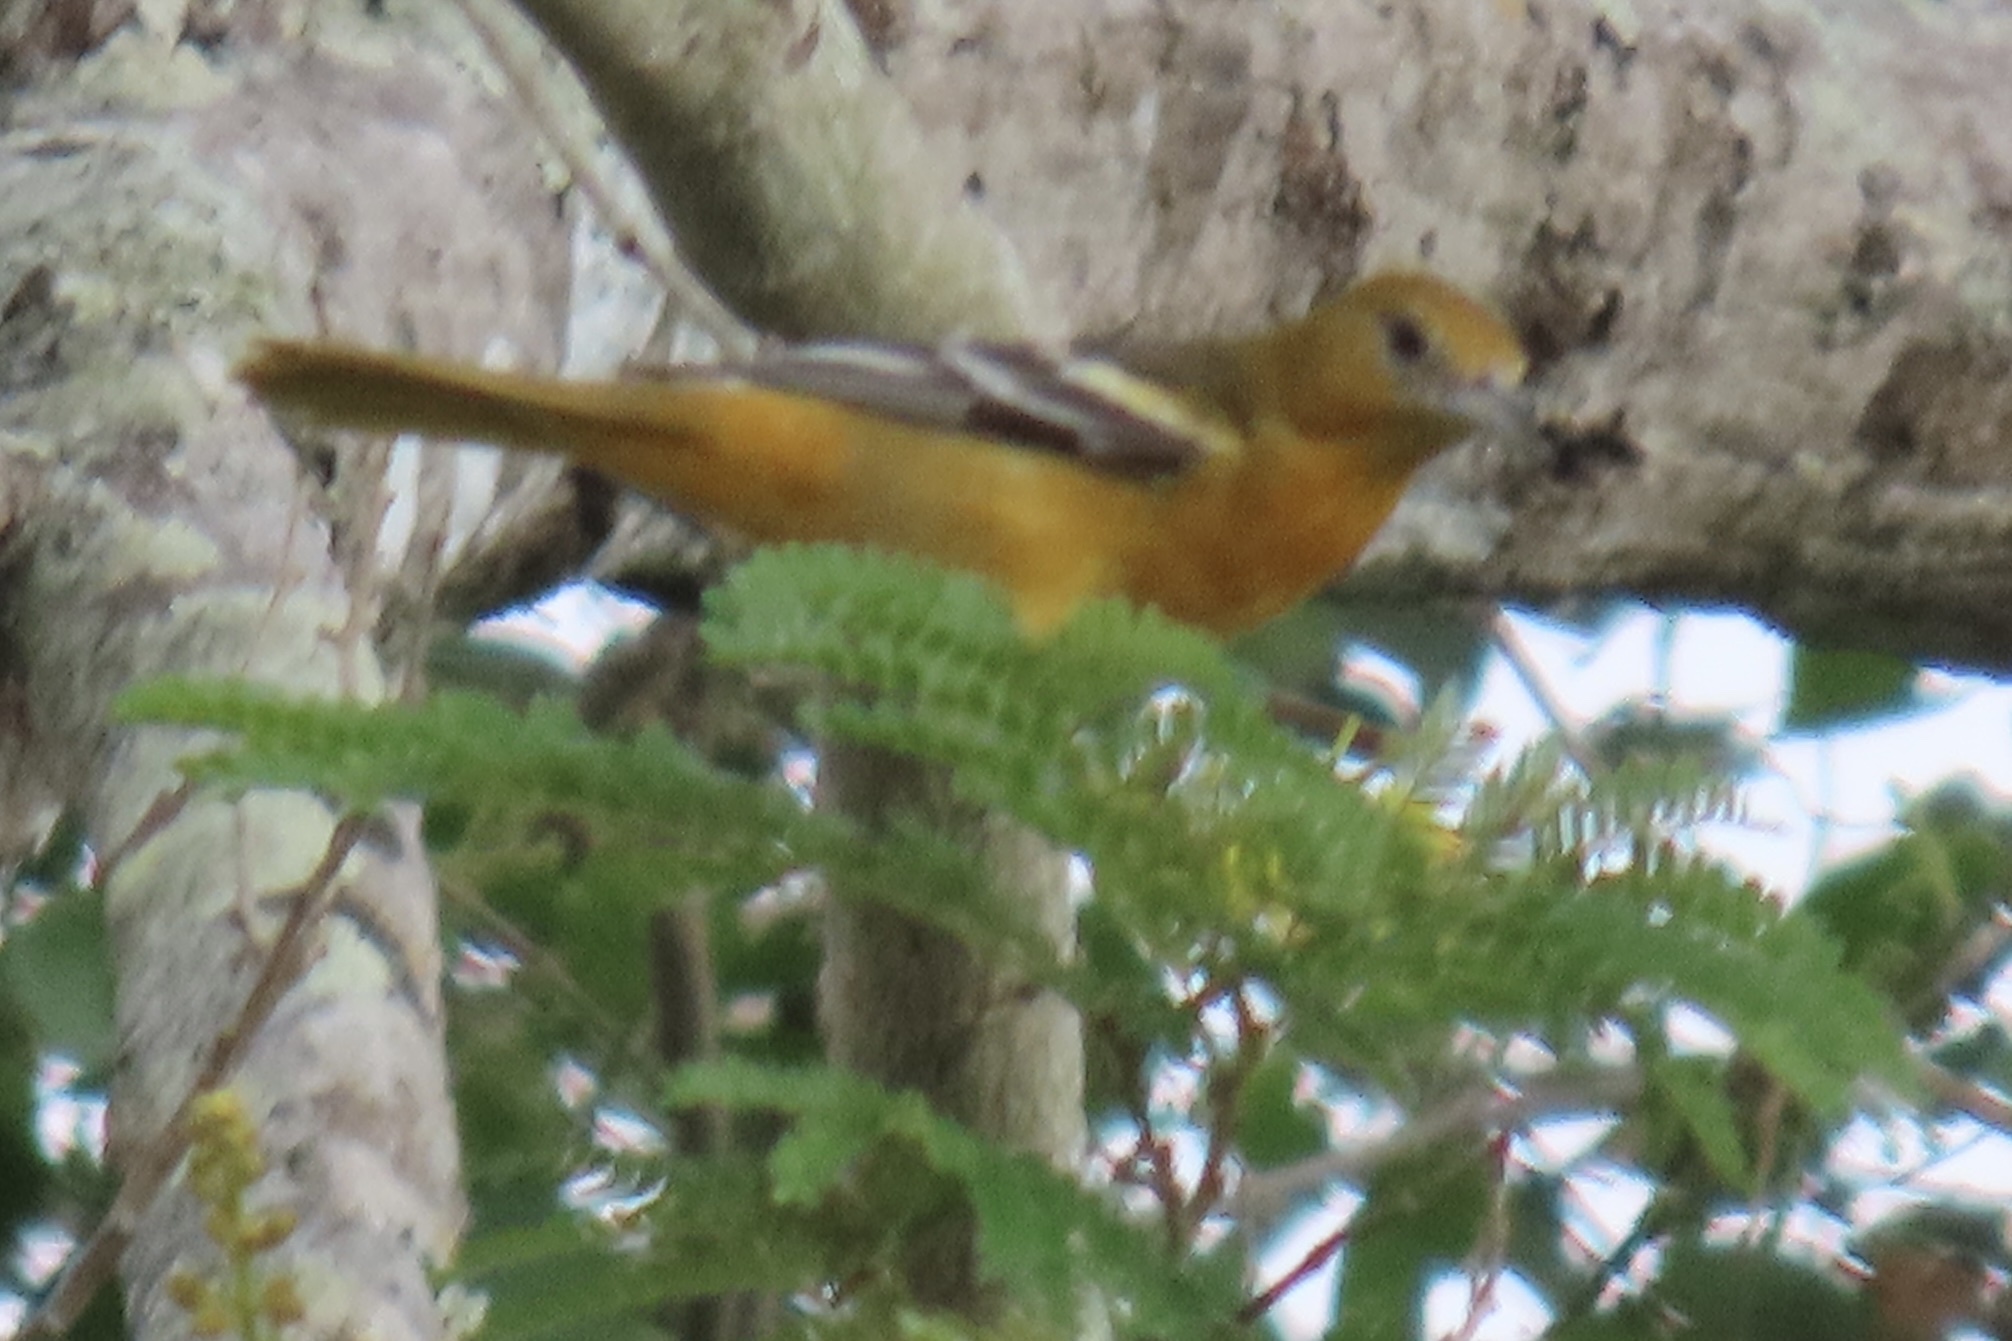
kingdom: Animalia
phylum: Chordata
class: Aves
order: Passeriformes
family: Icteridae
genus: Icterus
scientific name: Icterus galbula
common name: Baltimore oriole
